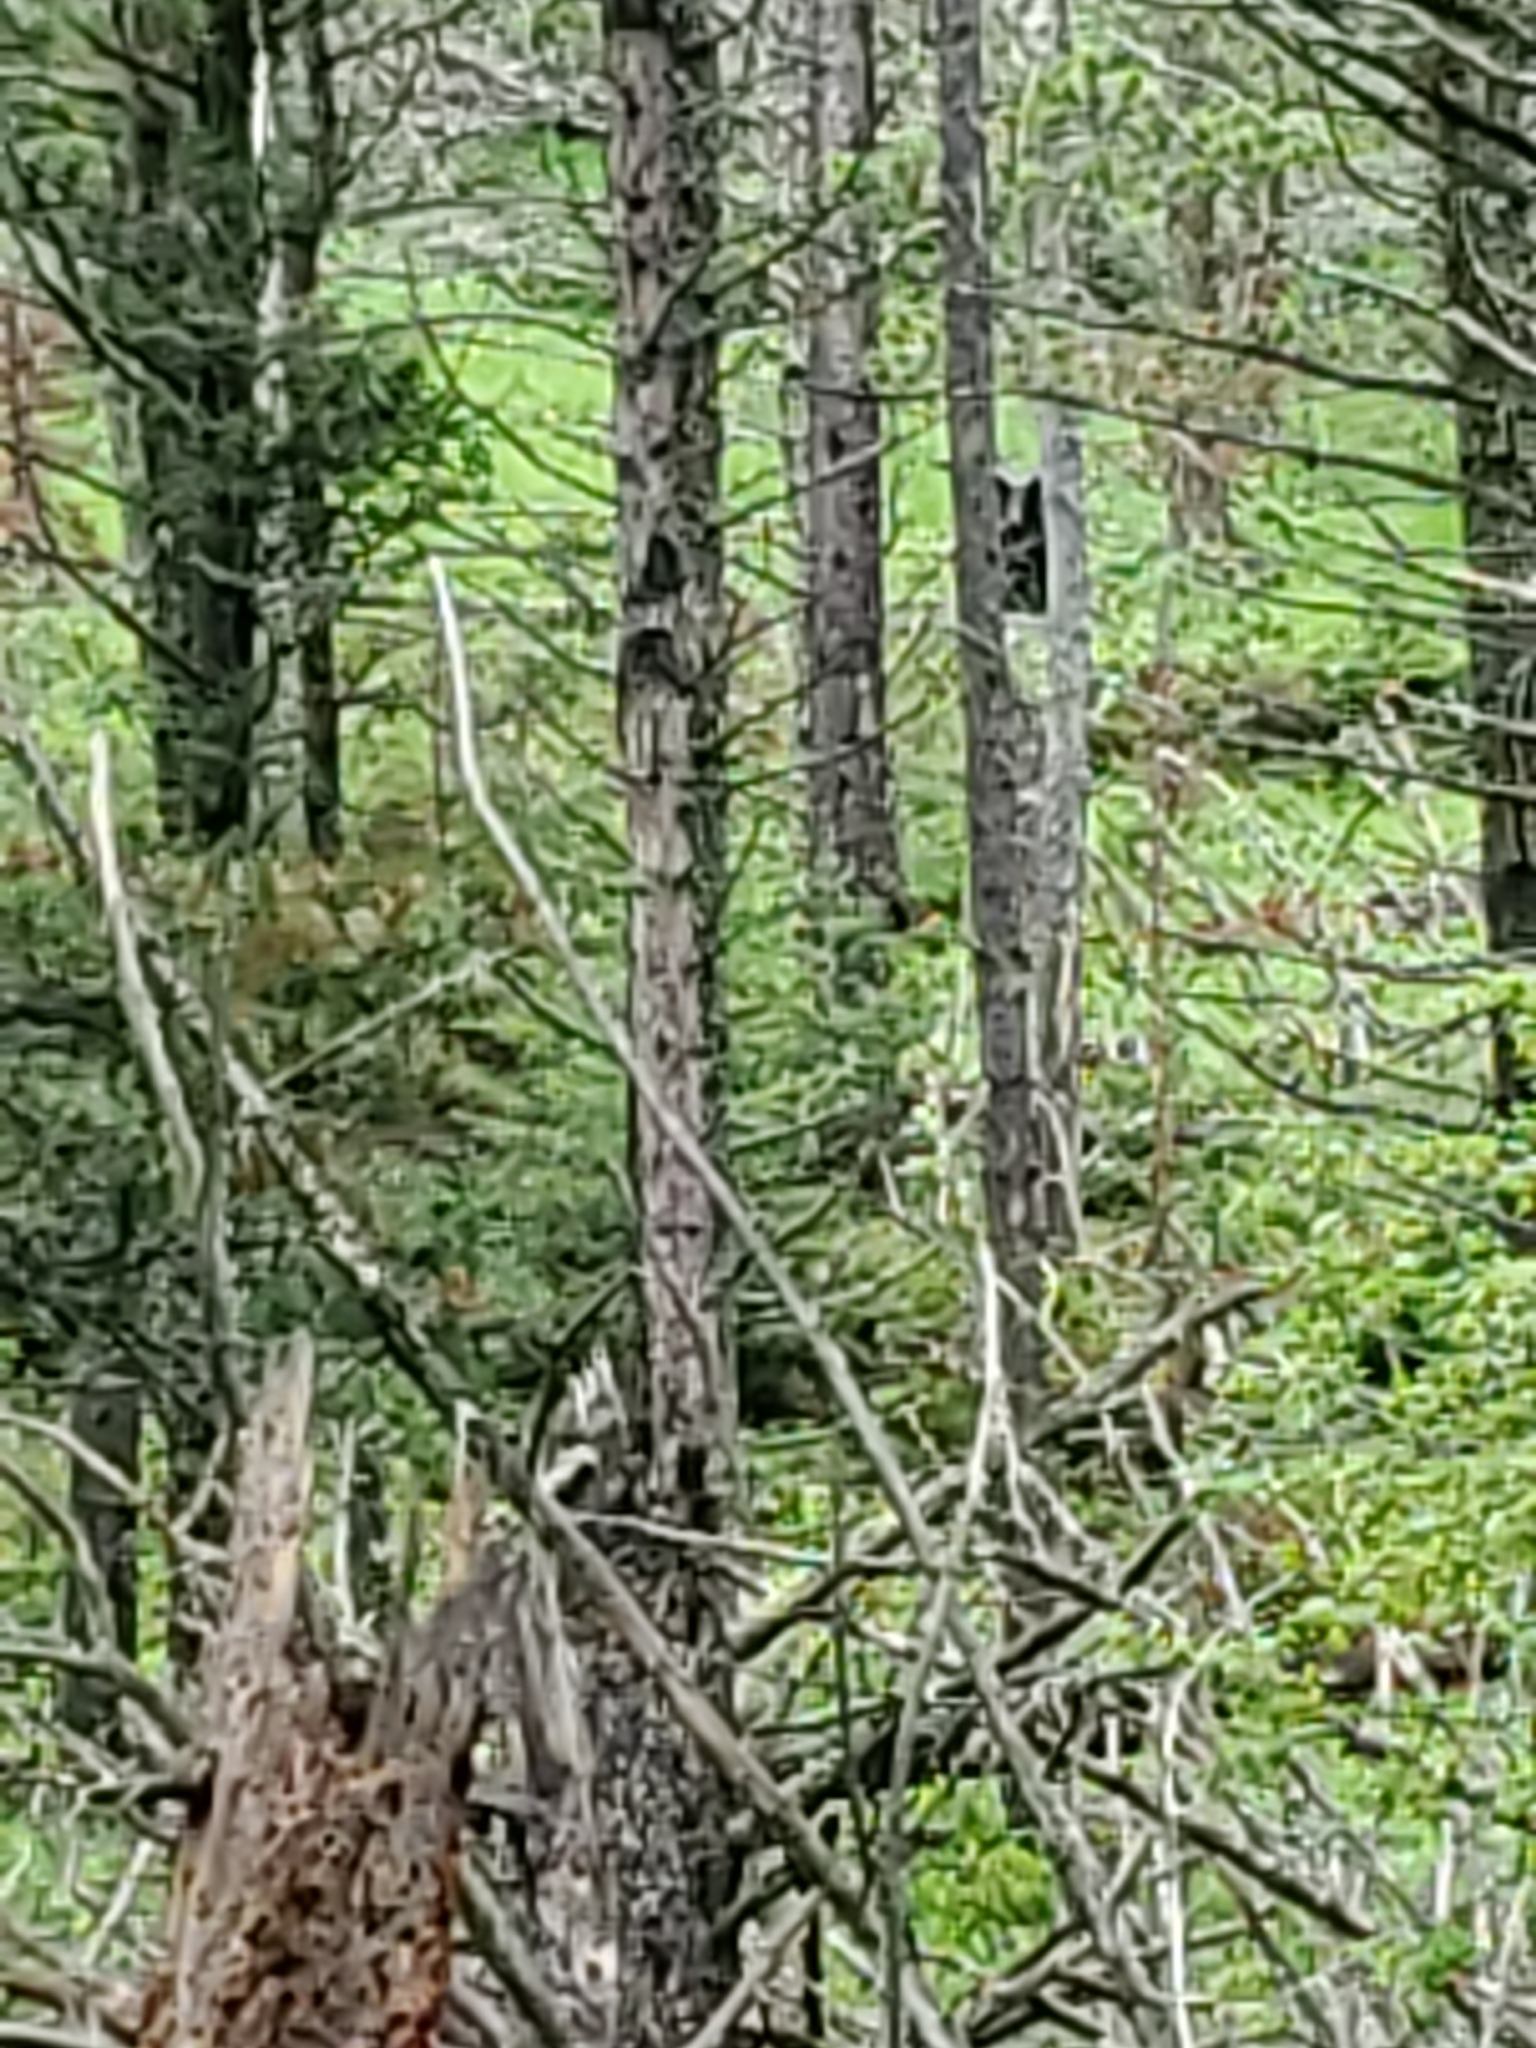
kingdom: Animalia
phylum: Chordata
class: Mammalia
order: Carnivora
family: Ursidae
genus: Ursus
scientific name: Ursus americanus
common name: American black bear
